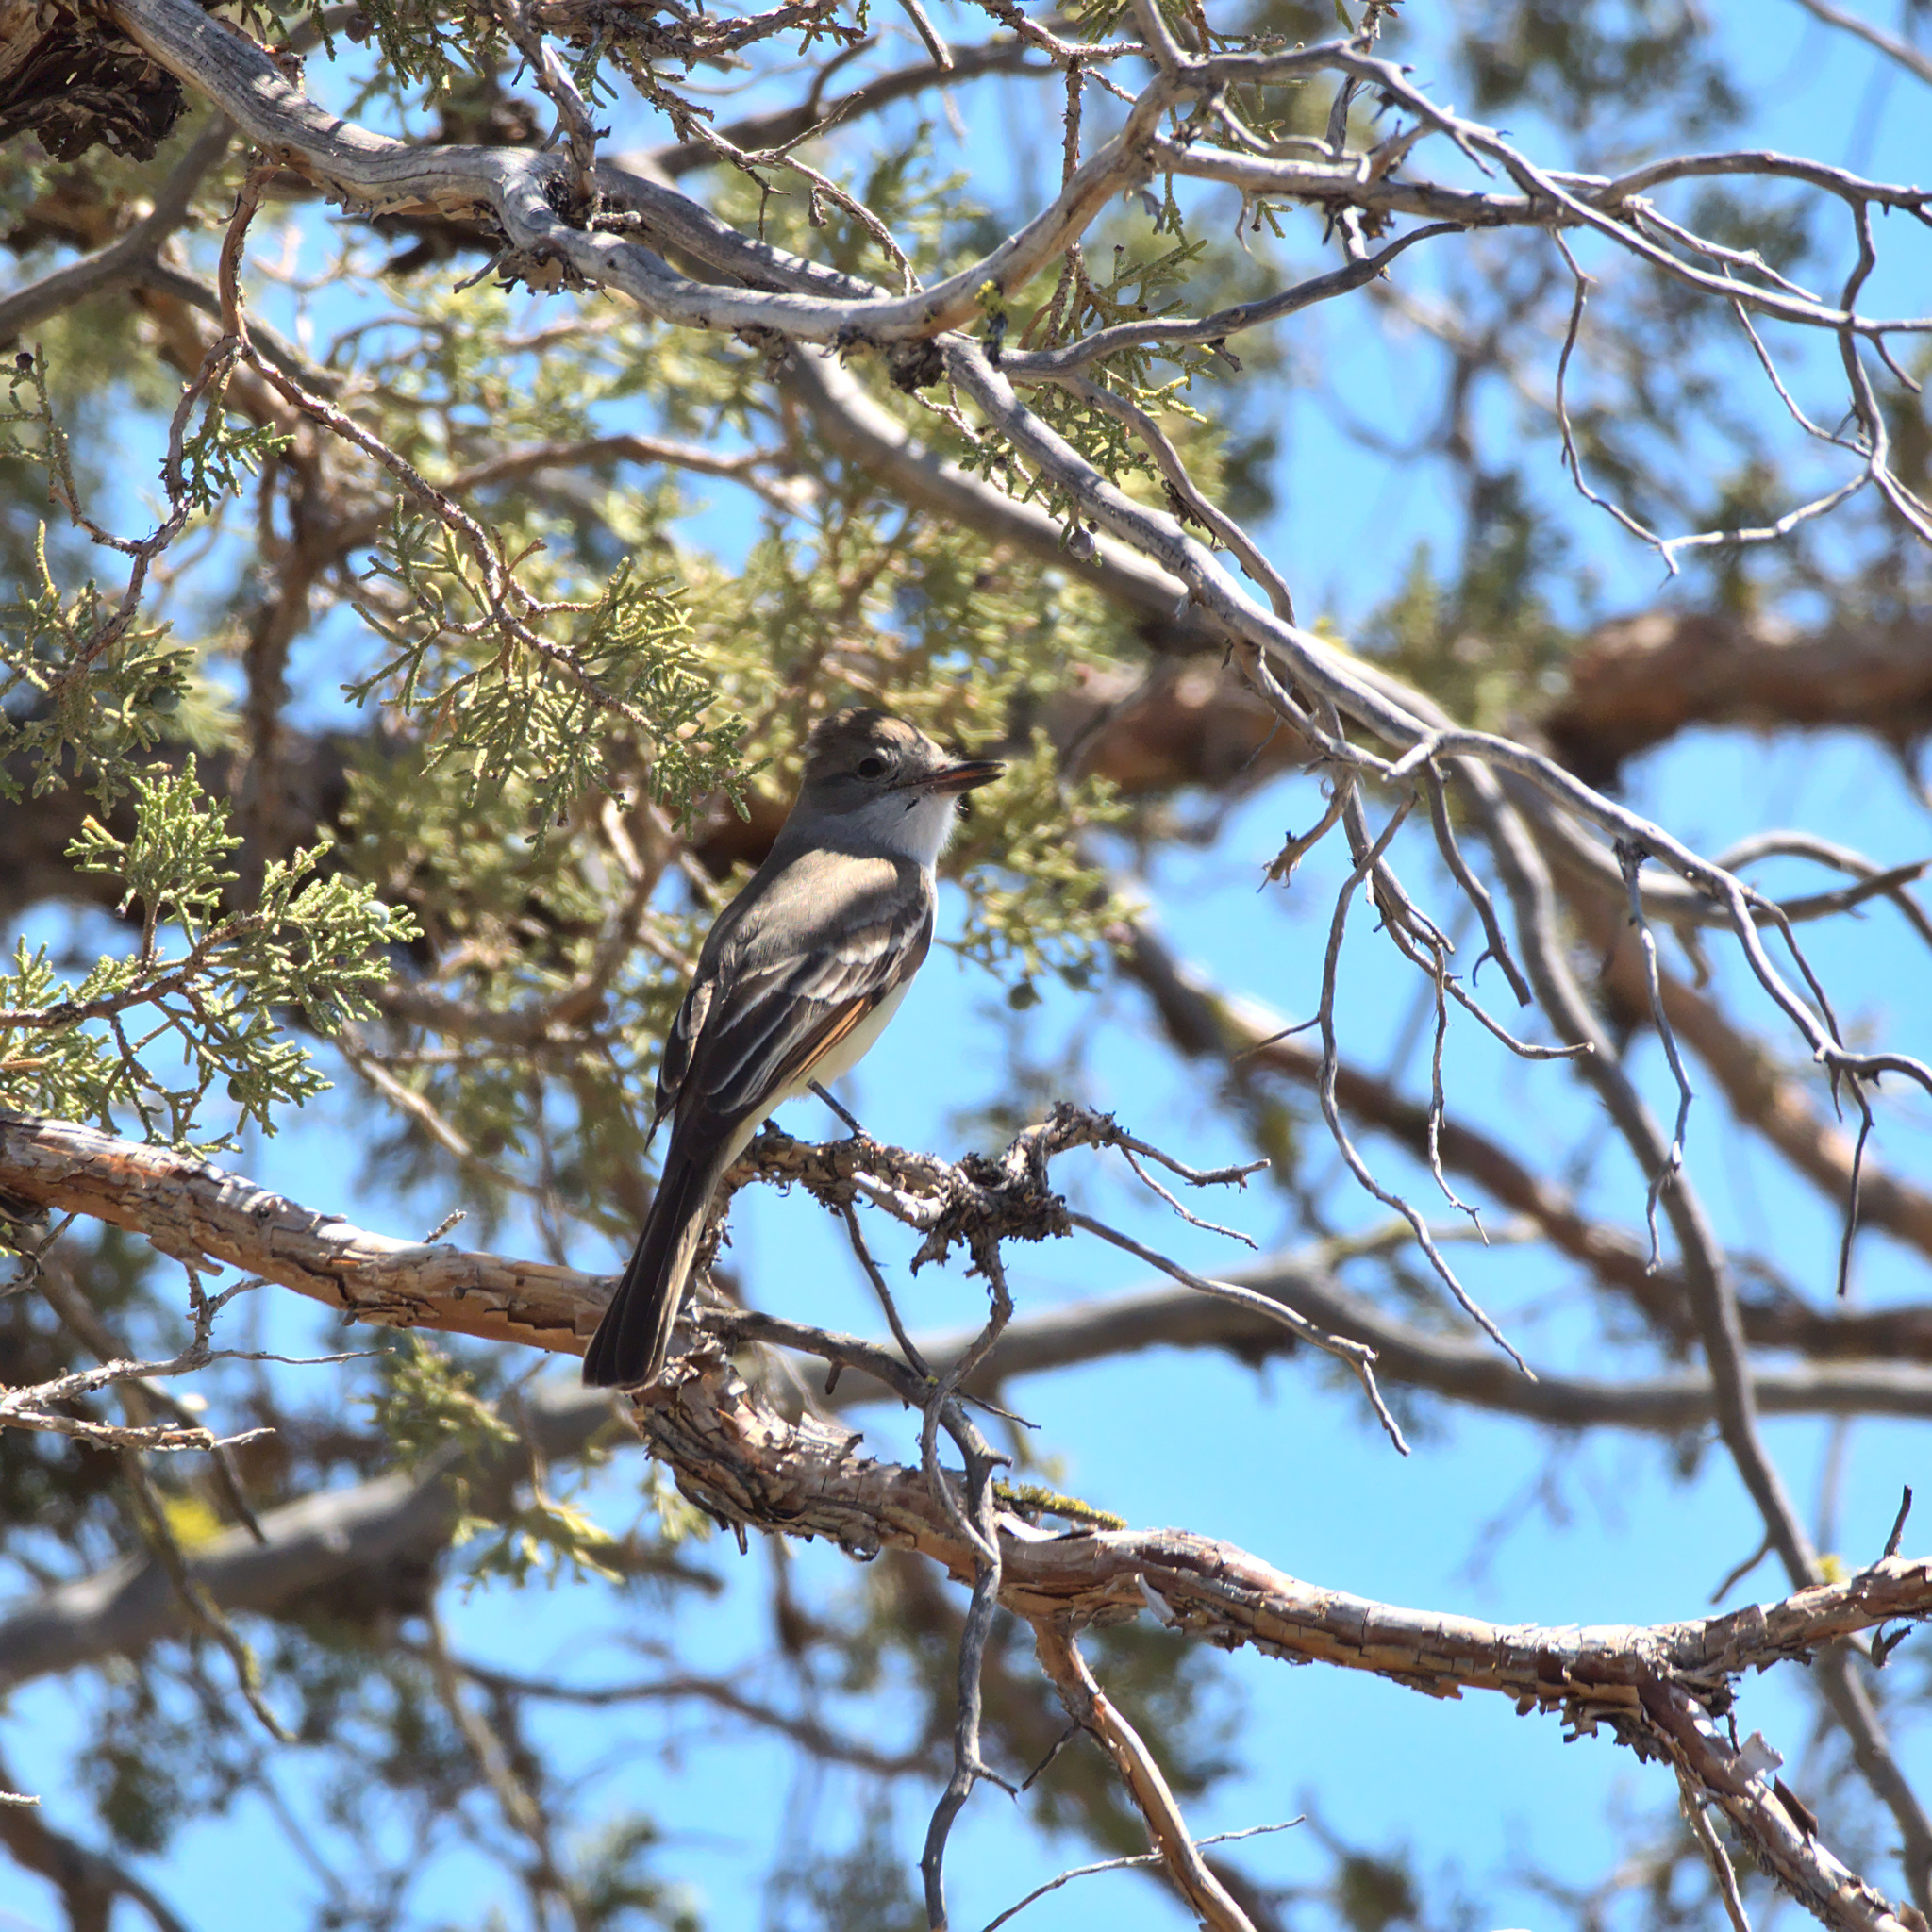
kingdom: Animalia
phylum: Chordata
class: Aves
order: Passeriformes
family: Tyrannidae
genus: Myiarchus
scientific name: Myiarchus cinerascens
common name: Ash-throated flycatcher
